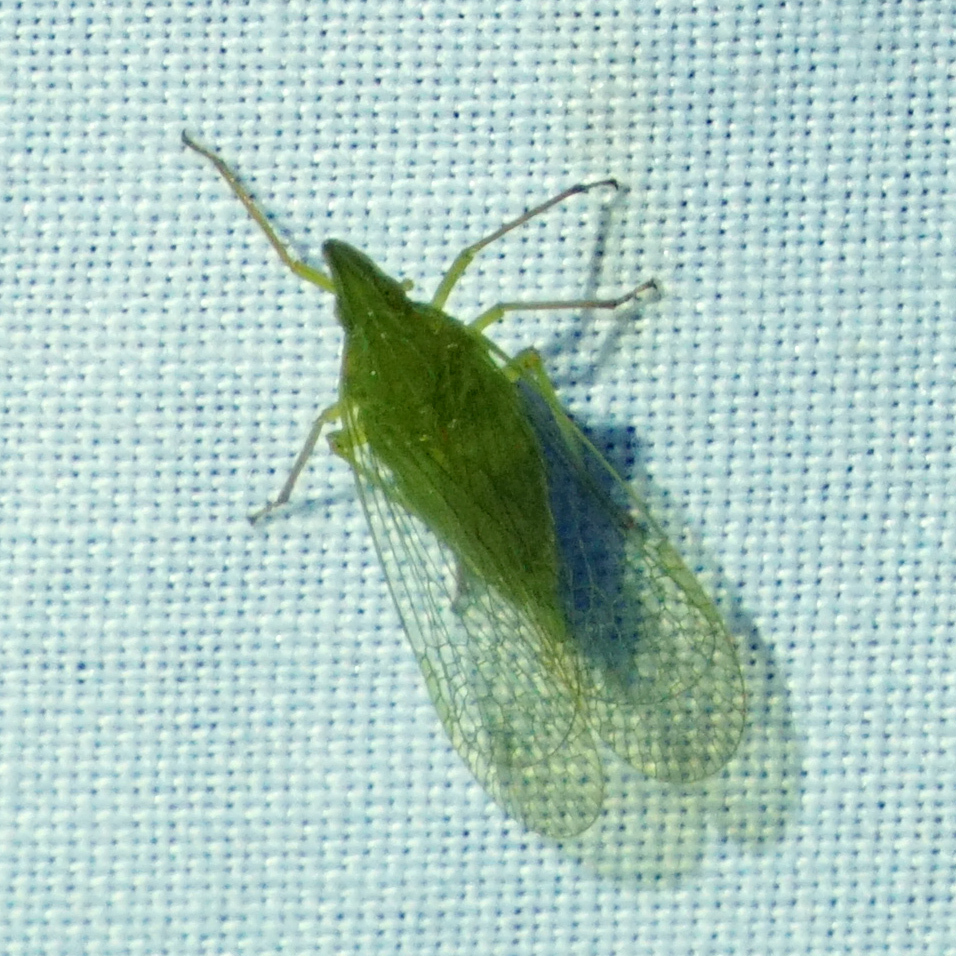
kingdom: Animalia
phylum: Arthropoda
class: Insecta
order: Hemiptera
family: Dictyopharidae
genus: Rhynchomitra
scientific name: Rhynchomitra microrhina
